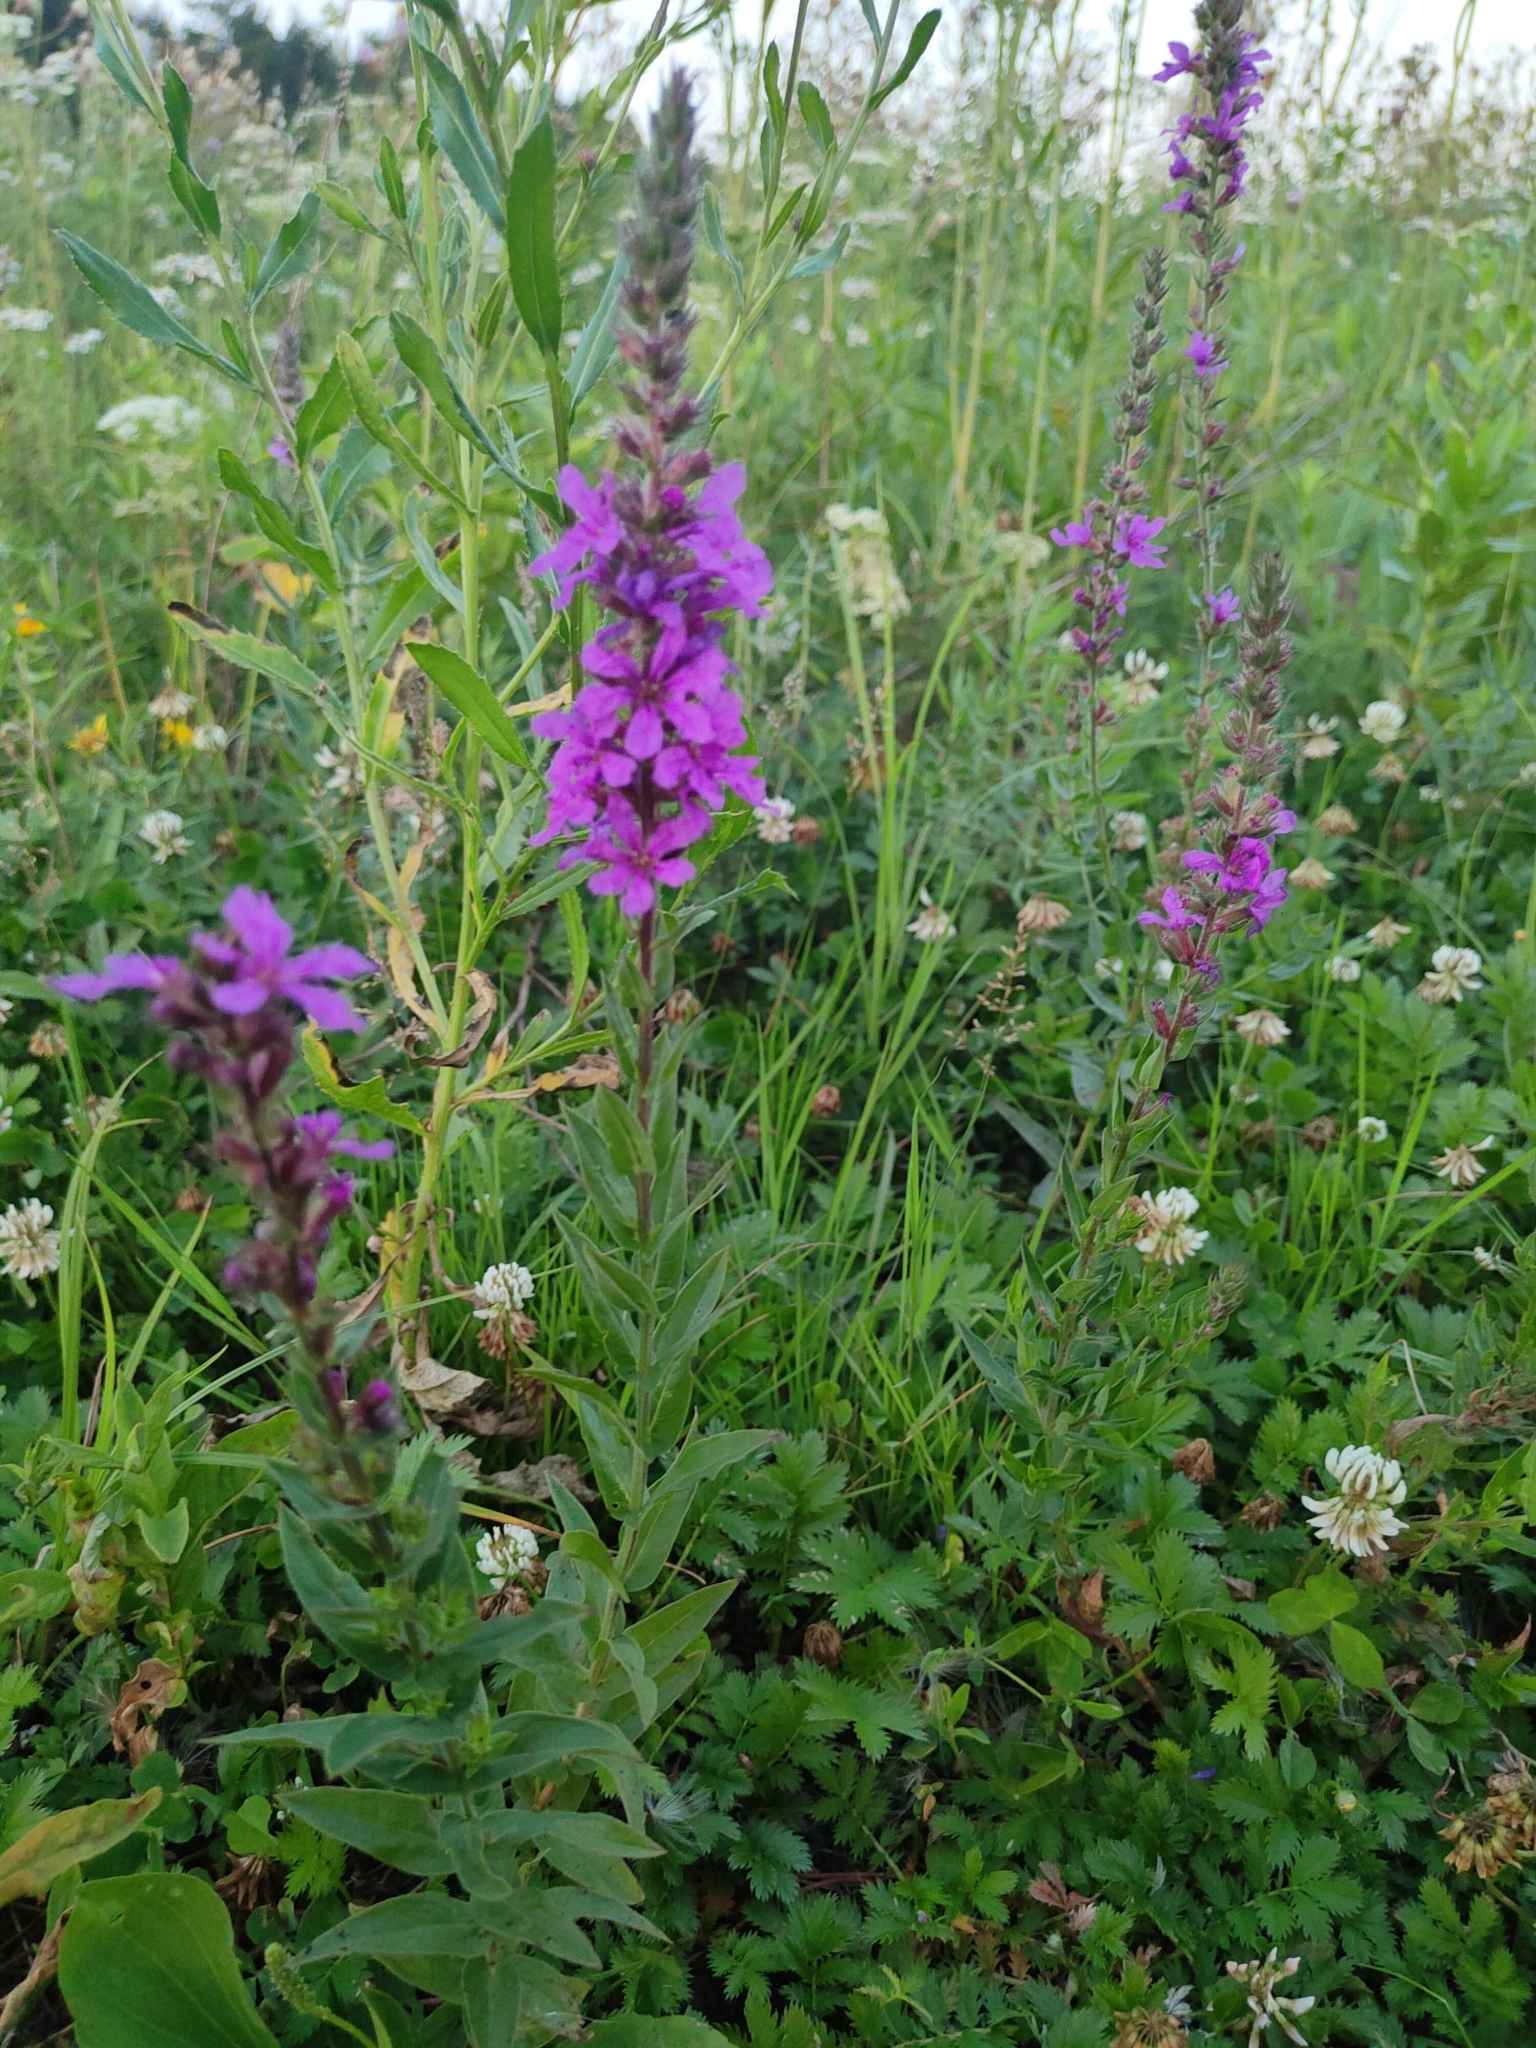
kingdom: Plantae
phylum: Tracheophyta
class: Magnoliopsida
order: Myrtales
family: Lythraceae
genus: Lythrum
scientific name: Lythrum salicaria
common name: Purple loosestrife
